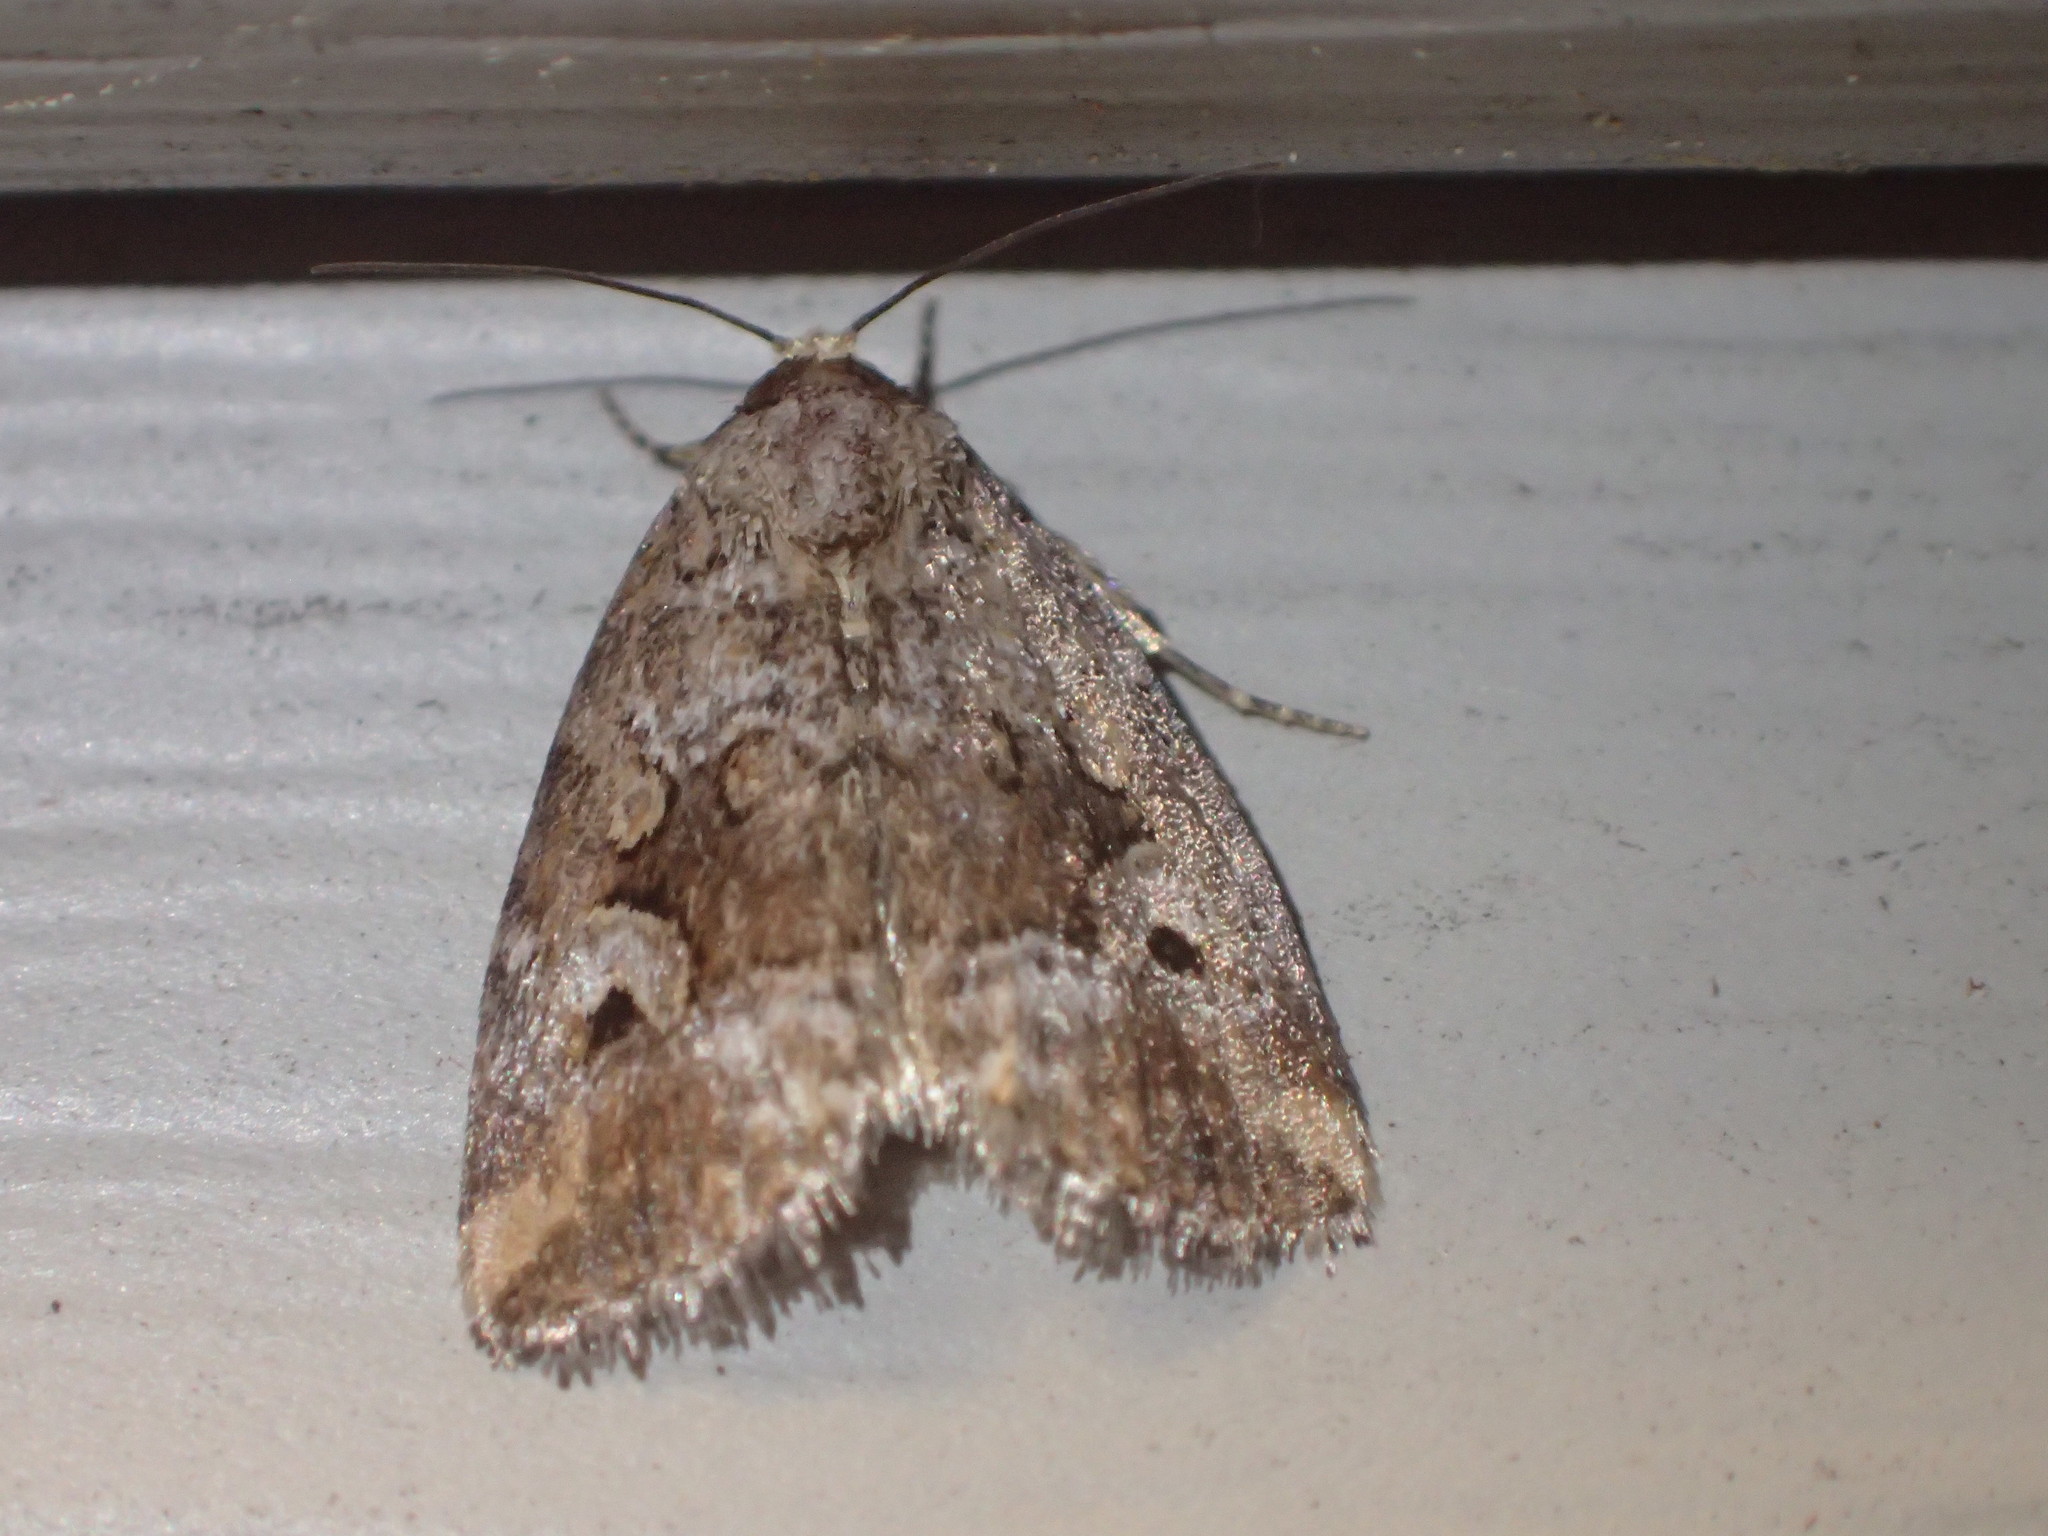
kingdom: Animalia
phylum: Arthropoda
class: Insecta
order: Lepidoptera
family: Noctuidae
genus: Elaphria
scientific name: Elaphria alapallida
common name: Pale-winged midget
